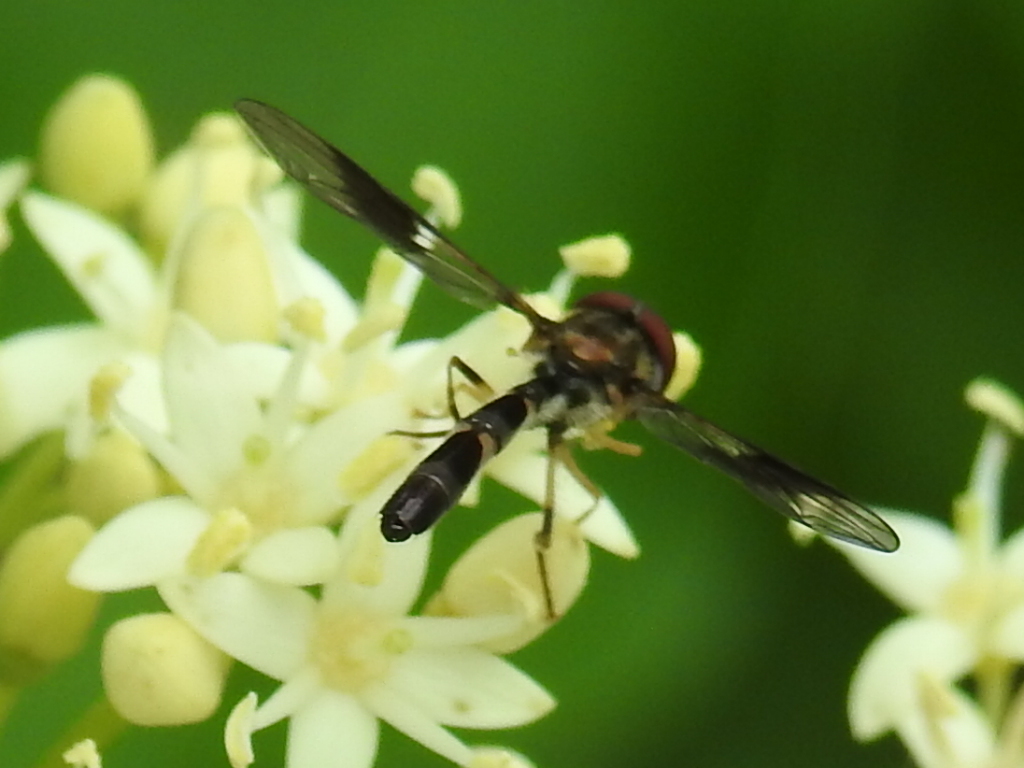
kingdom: Animalia
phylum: Arthropoda
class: Insecta
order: Diptera
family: Syrphidae
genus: Hypocritanus
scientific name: Hypocritanus fascipennis
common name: Eastern band-winged hover fly
